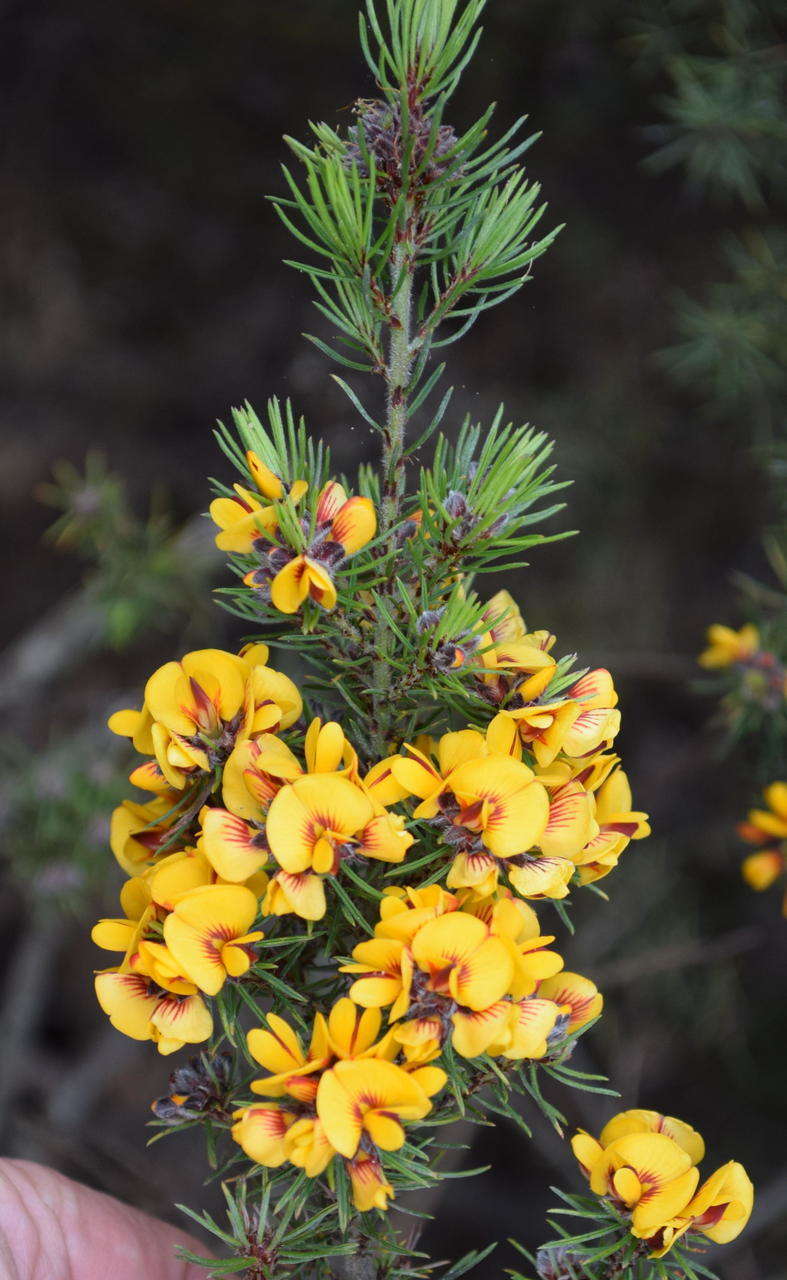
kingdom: Plantae
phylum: Tracheophyta
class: Magnoliopsida
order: Fabales
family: Fabaceae
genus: Pultenaea
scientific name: Pultenaea mollis
